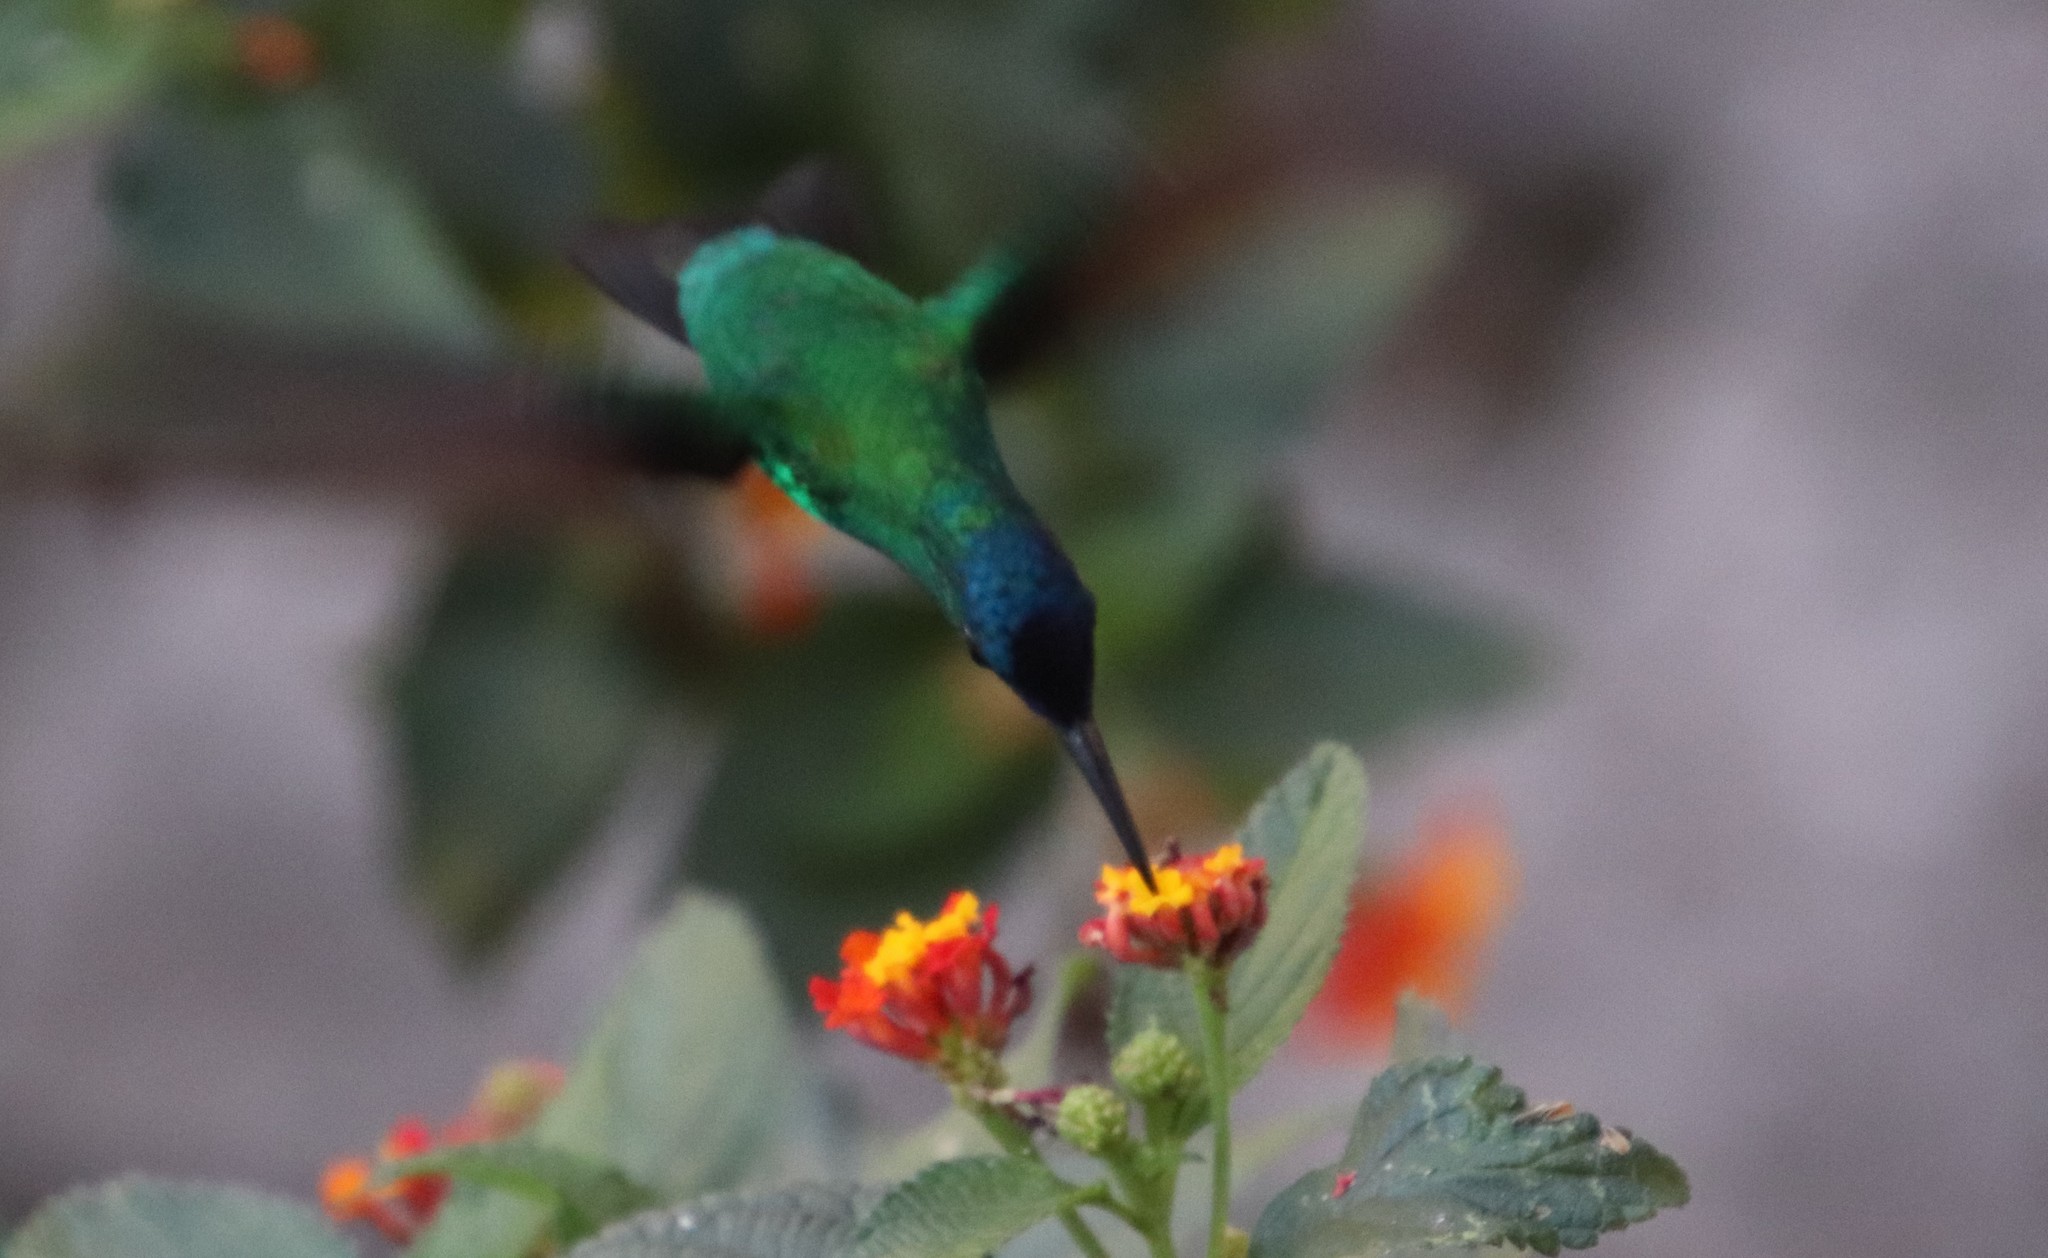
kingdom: Animalia
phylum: Chordata
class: Aves
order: Apodiformes
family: Trochilidae
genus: Thalurania
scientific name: Thalurania glaucopis
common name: Violet-capped woodnymph
